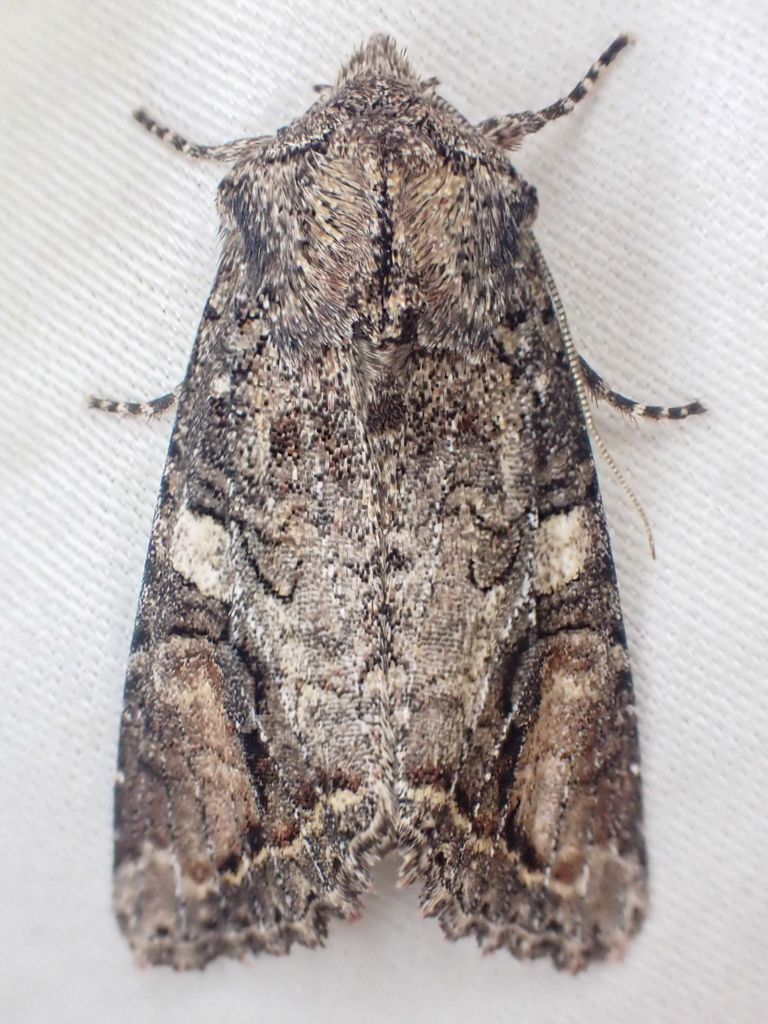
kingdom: Animalia
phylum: Arthropoda
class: Insecta
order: Lepidoptera
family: Noctuidae
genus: Egira
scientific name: Egira perlubens
